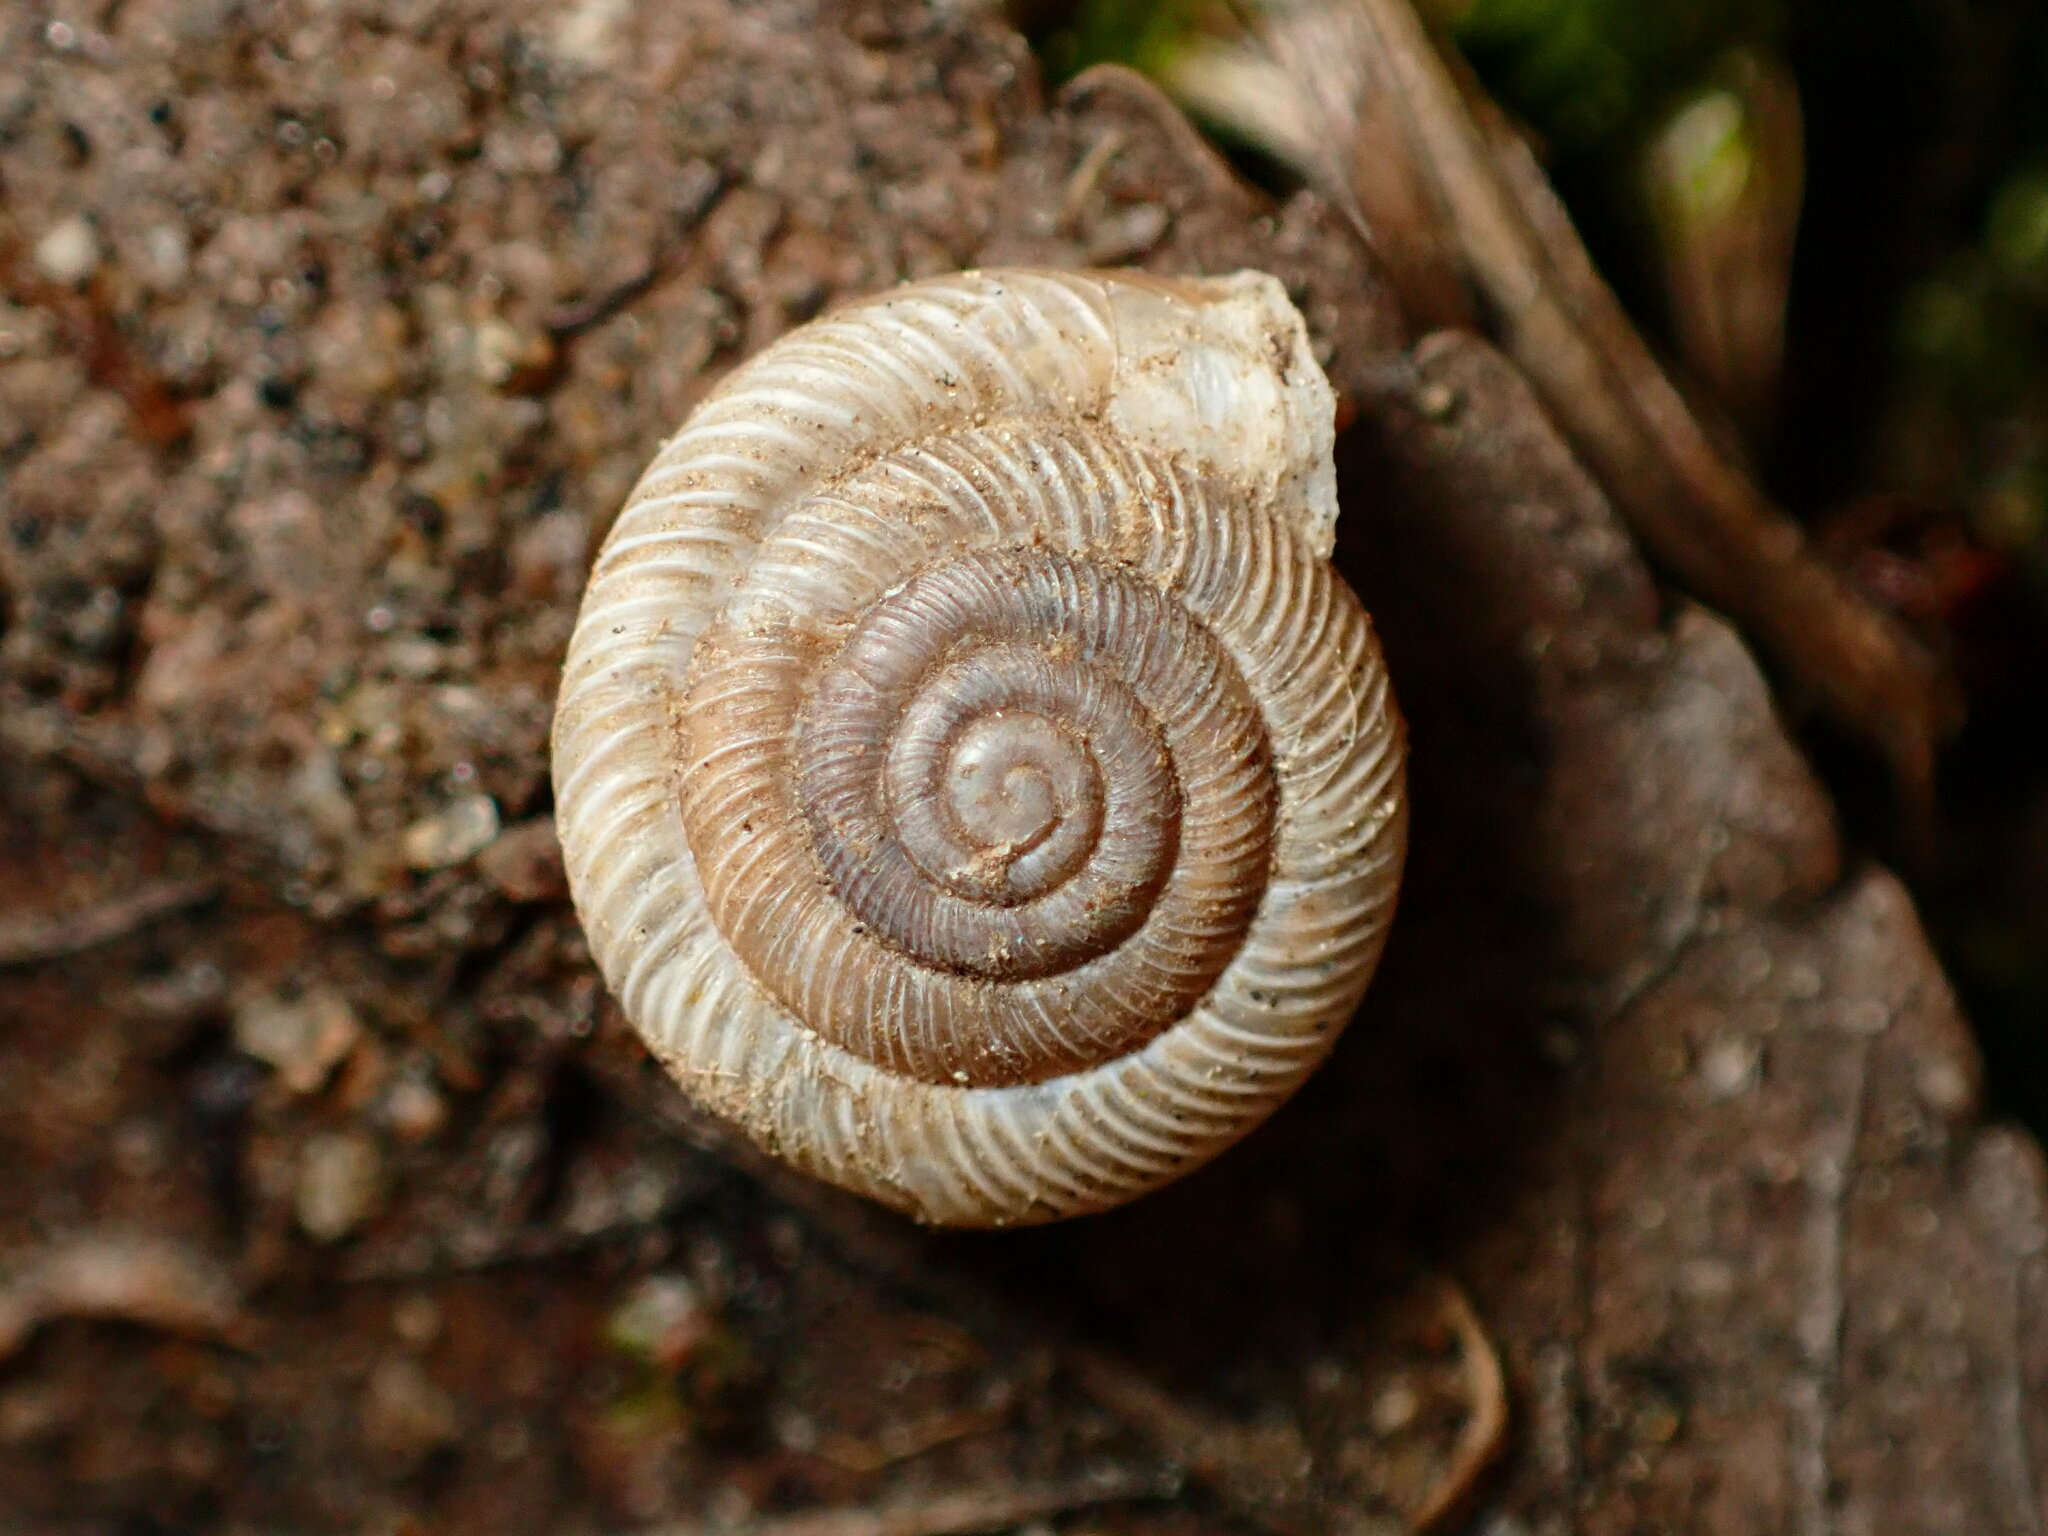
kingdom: Animalia
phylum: Mollusca
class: Gastropoda
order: Stylommatophora
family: Polygyridae
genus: Polygyra
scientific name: Polygyra cereolus
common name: Southern flatcone snail
